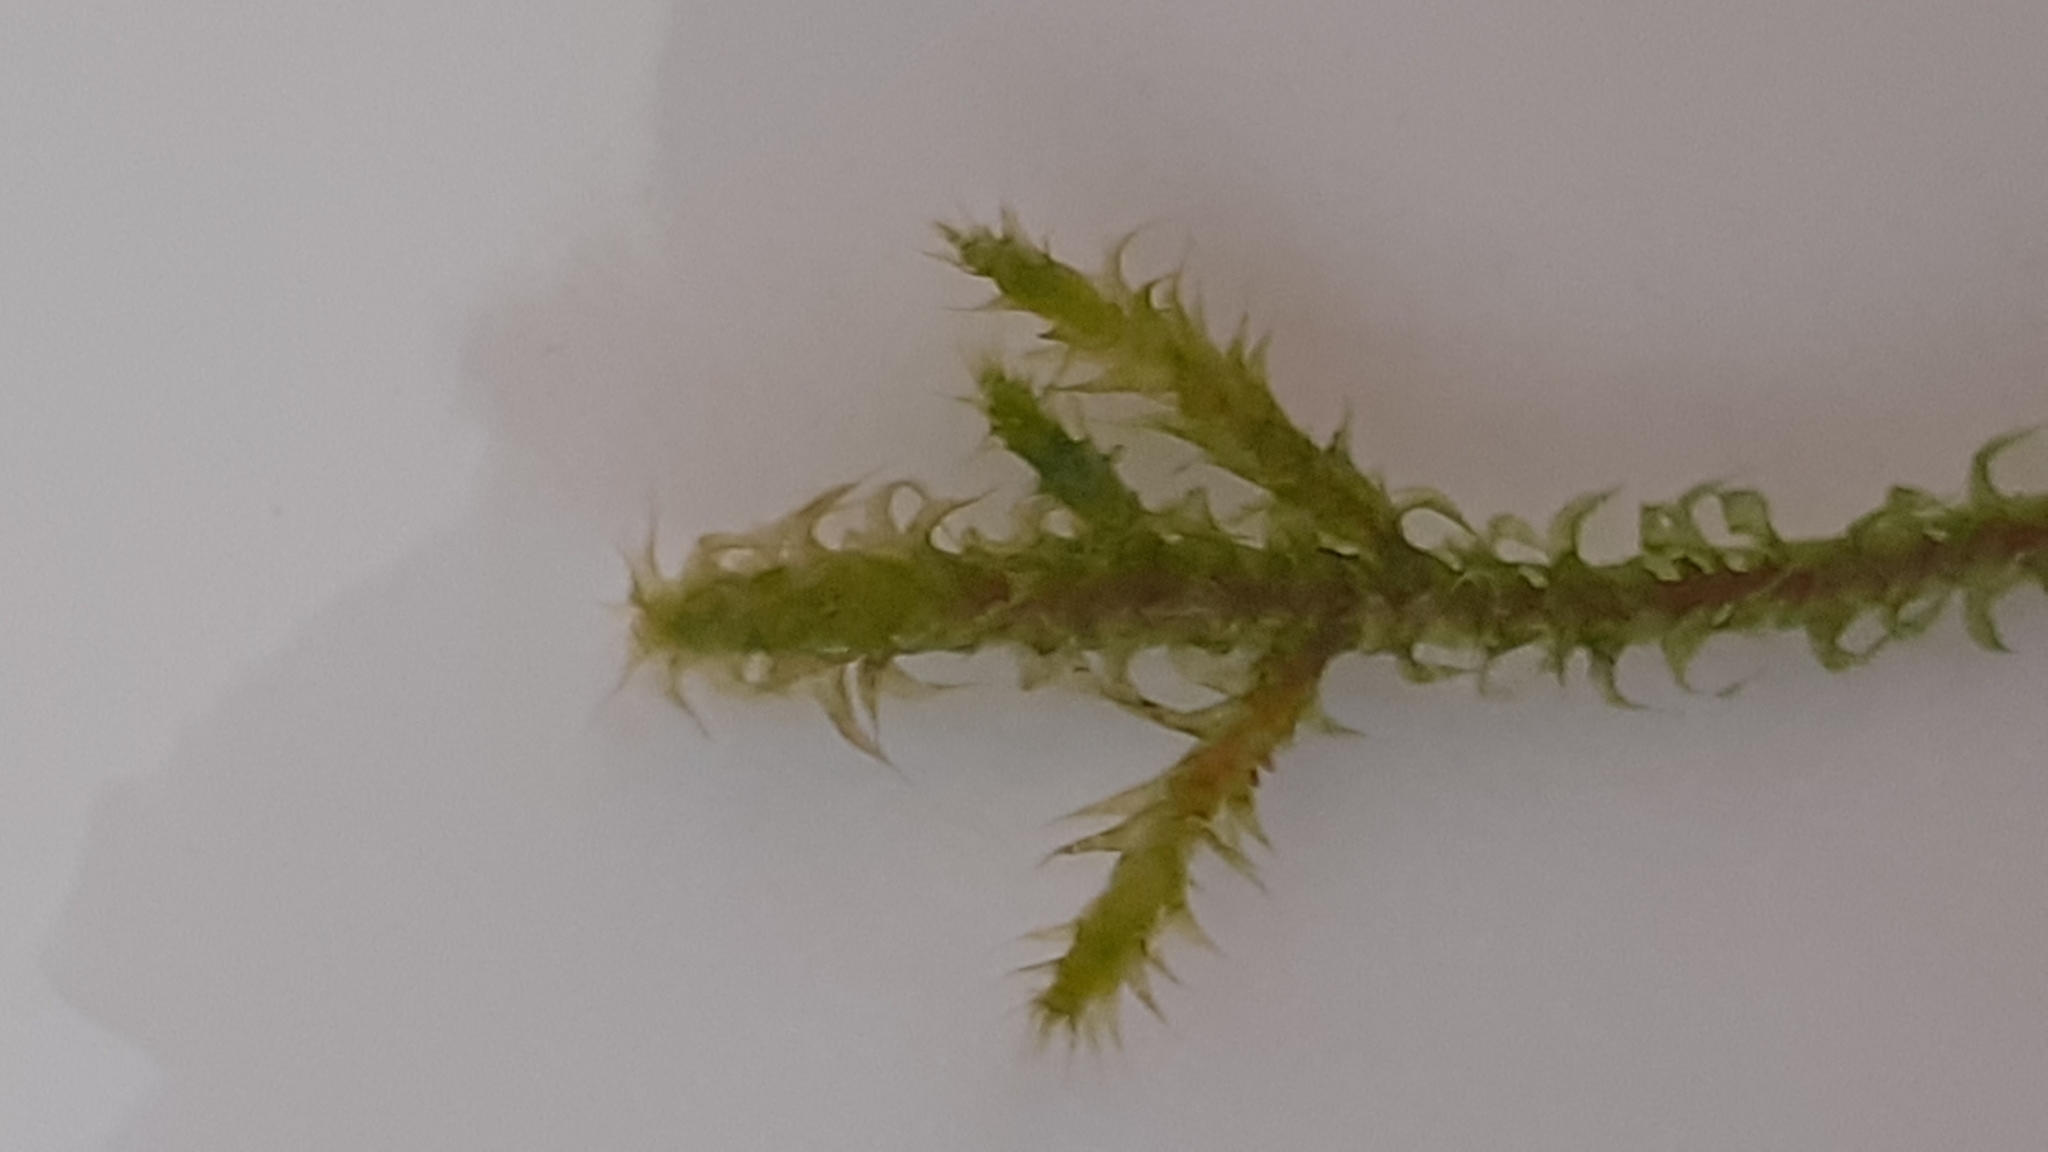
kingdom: Plantae
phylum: Bryophyta
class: Bryopsida
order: Hypnales
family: Hylocomiaceae
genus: Rhytidiadelphus
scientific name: Rhytidiadelphus squarrosus
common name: Springy turf-moss
